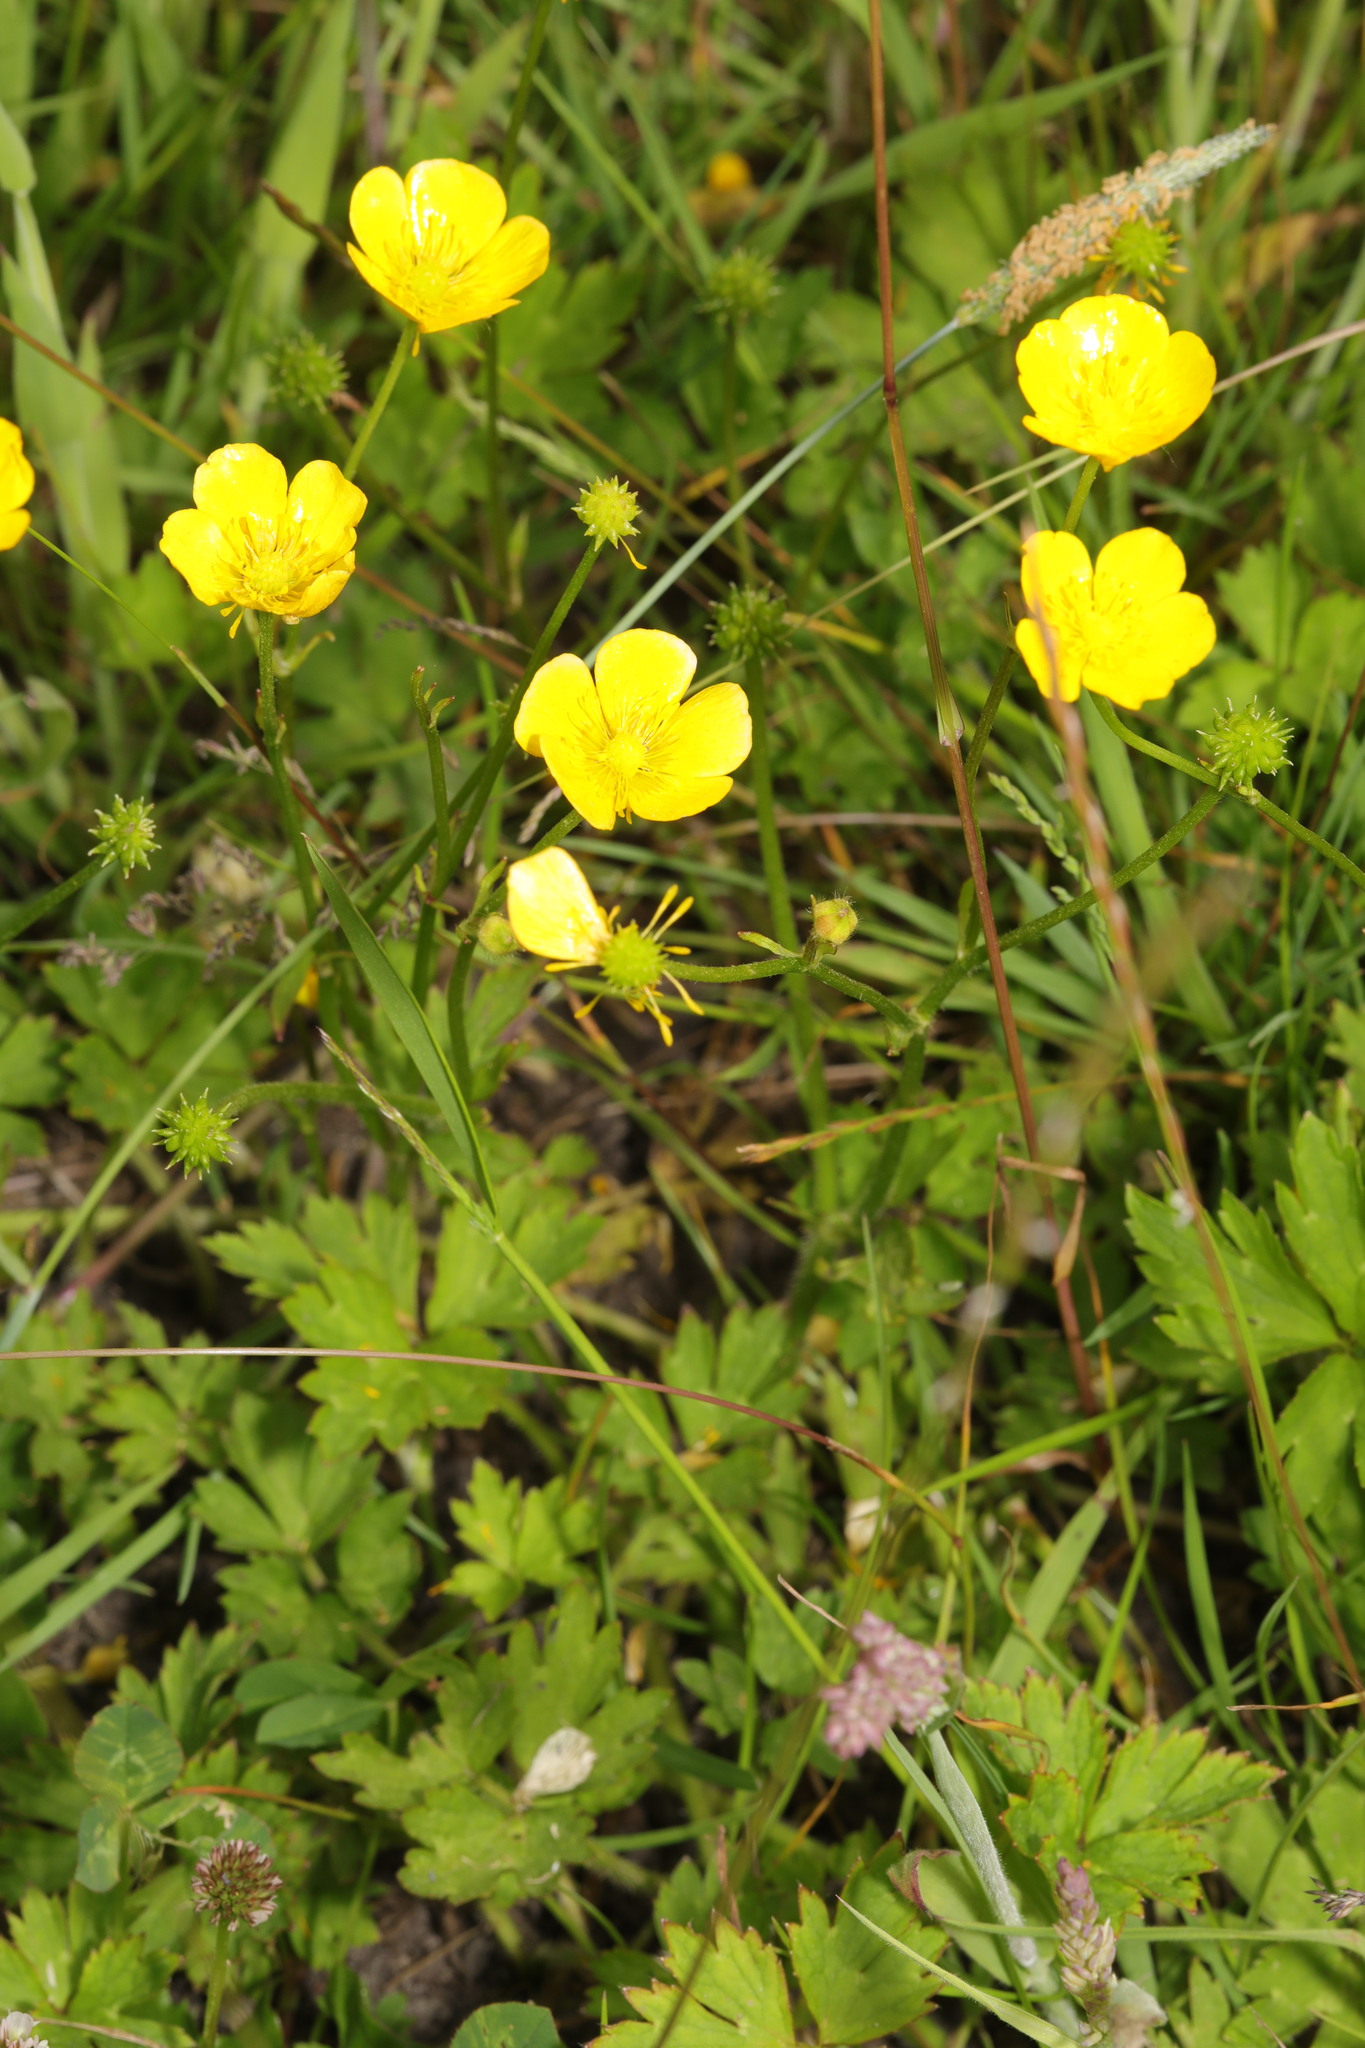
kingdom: Plantae
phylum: Tracheophyta
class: Magnoliopsida
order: Ranunculales
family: Ranunculaceae
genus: Ranunculus
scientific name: Ranunculus repens
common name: Creeping buttercup
